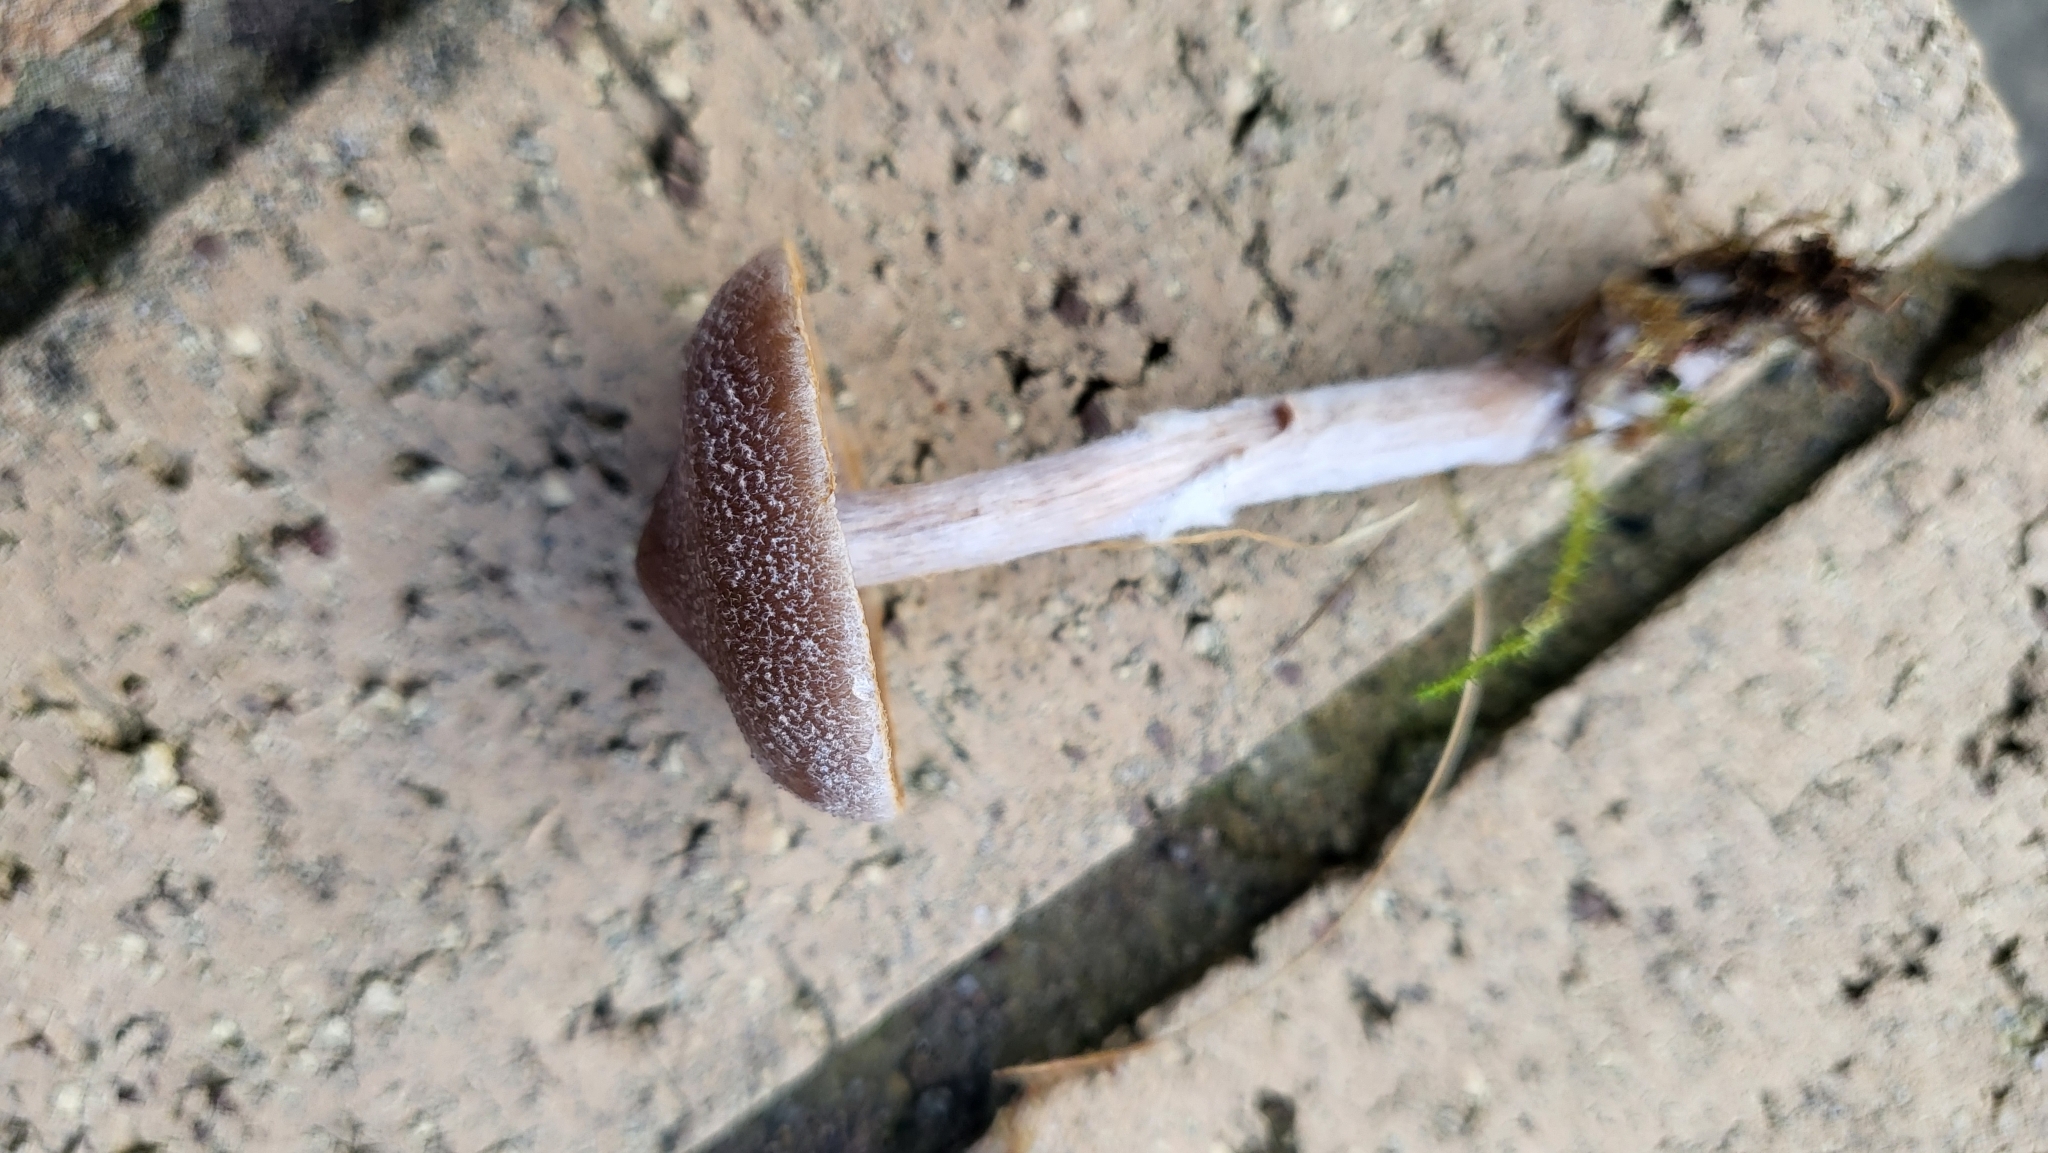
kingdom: Fungi
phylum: Basidiomycota
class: Agaricomycetes
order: Agaricales
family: Cortinariaceae
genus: Cortinarius
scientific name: Cortinarius hemitrichus
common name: Frosty webcap
